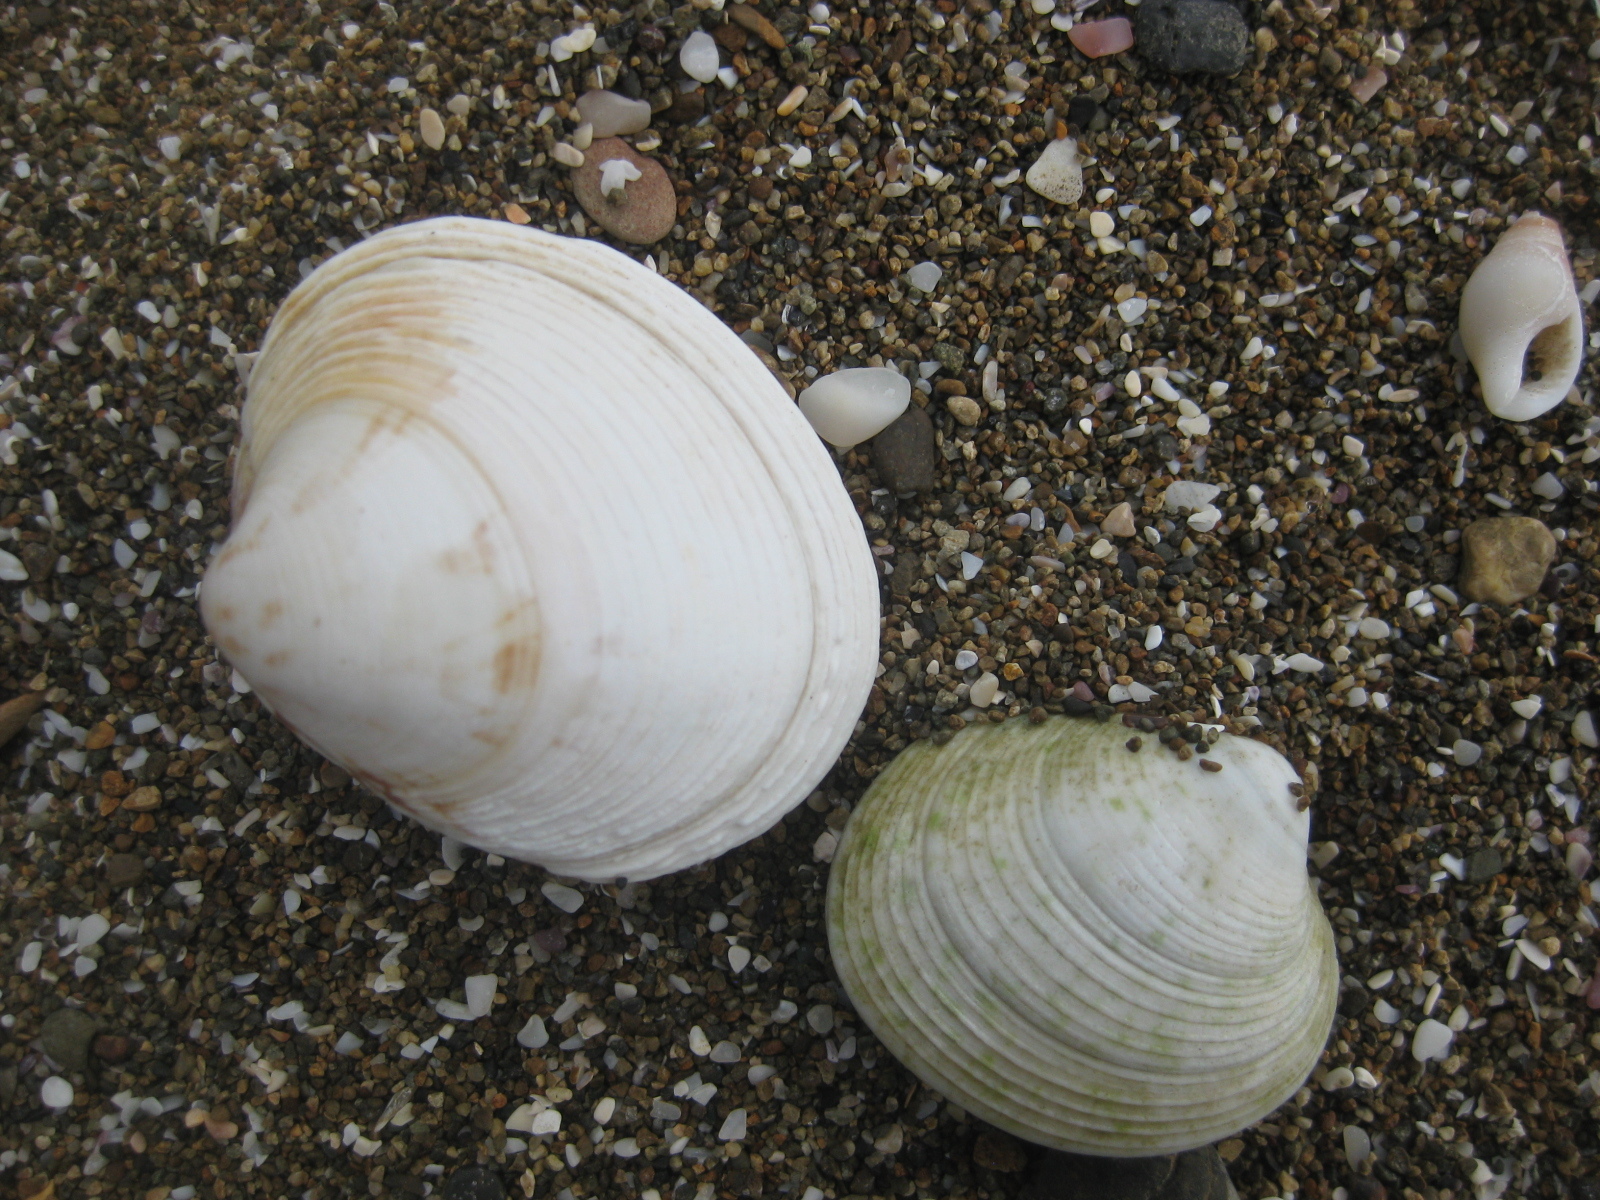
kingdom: Animalia
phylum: Mollusca
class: Bivalvia
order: Venerida
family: Veneridae
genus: Dosina
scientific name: Dosina mactracea
